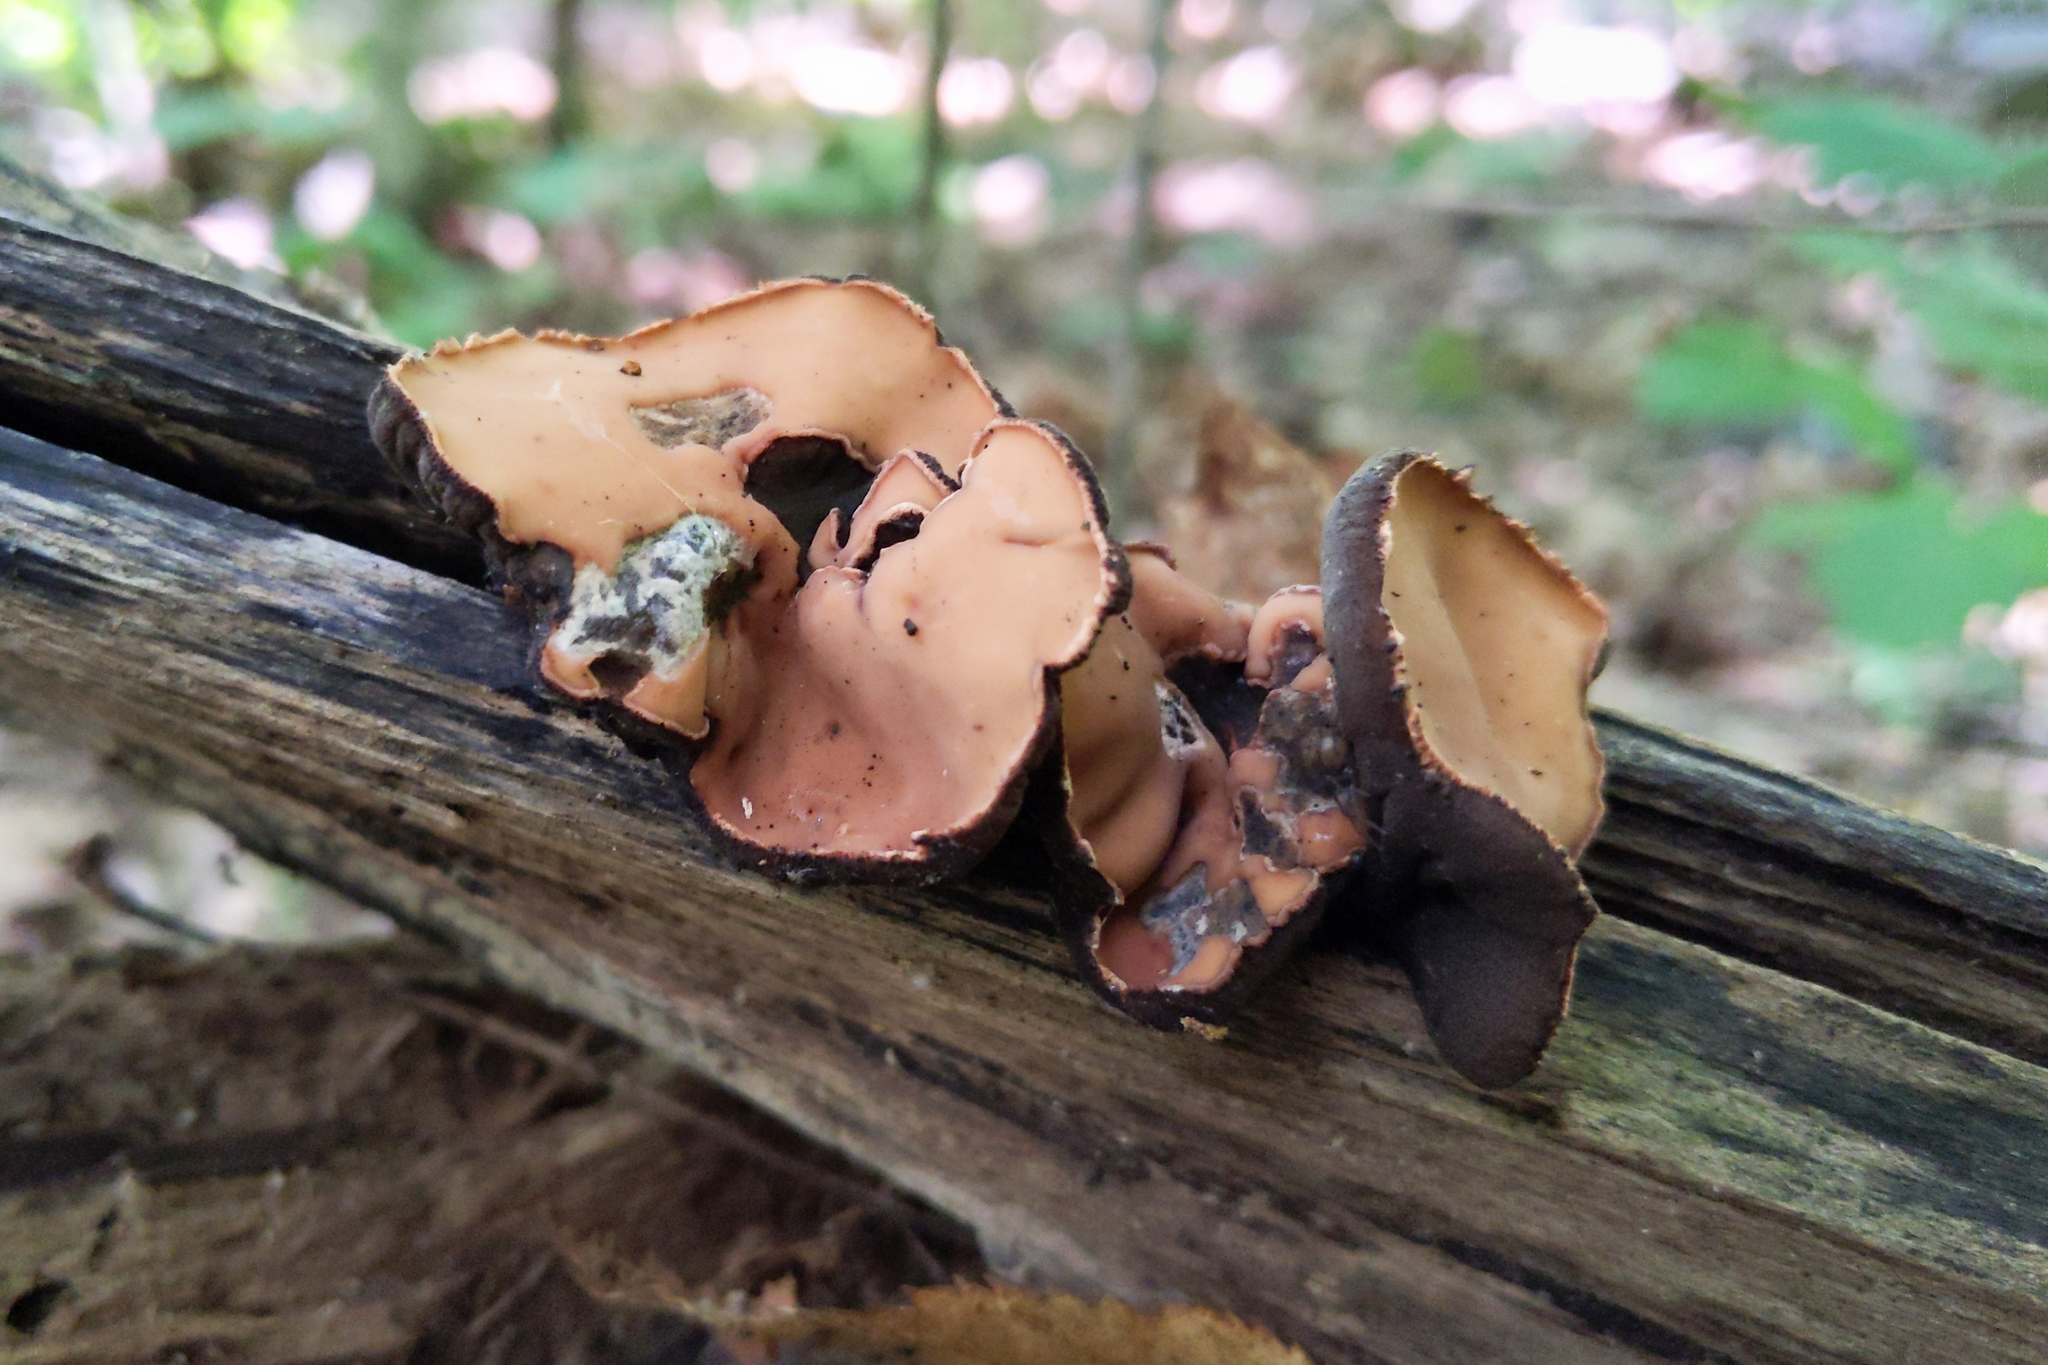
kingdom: Fungi
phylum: Ascomycota
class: Pezizomycetes
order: Pezizales
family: Sarcosomataceae
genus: Galiella
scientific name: Galiella rufa
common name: Hairy rubber cup
